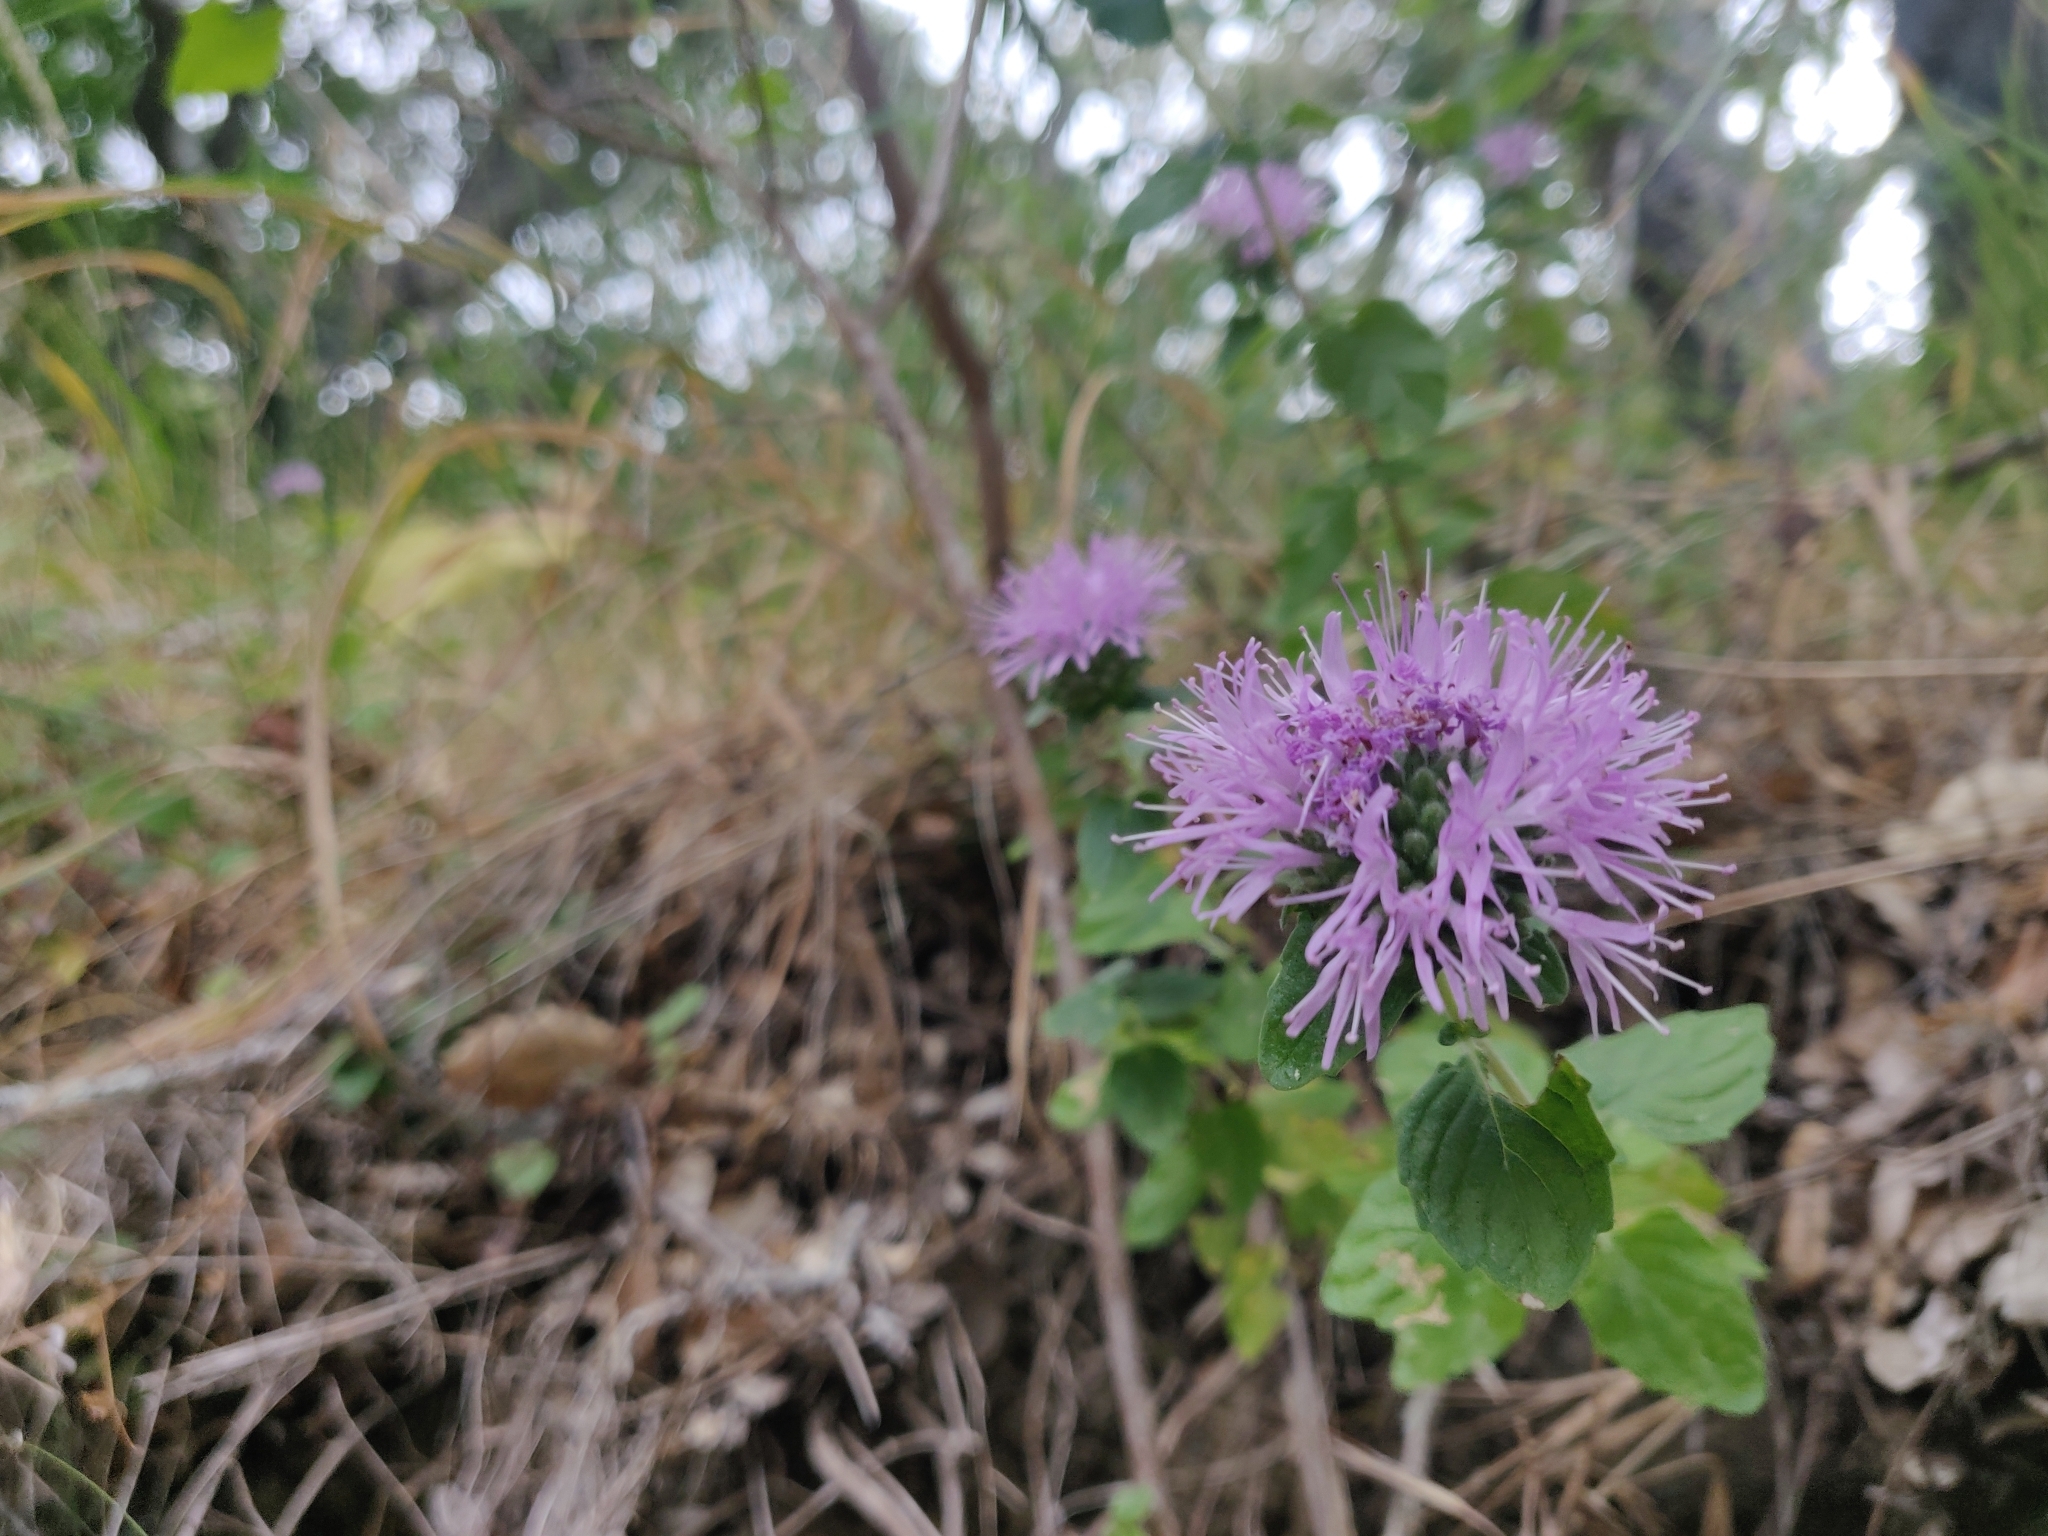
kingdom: Plantae
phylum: Tracheophyta
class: Magnoliopsida
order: Lamiales
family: Lamiaceae
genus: Monardella
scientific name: Monardella odoratissima
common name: Pacific monardella
